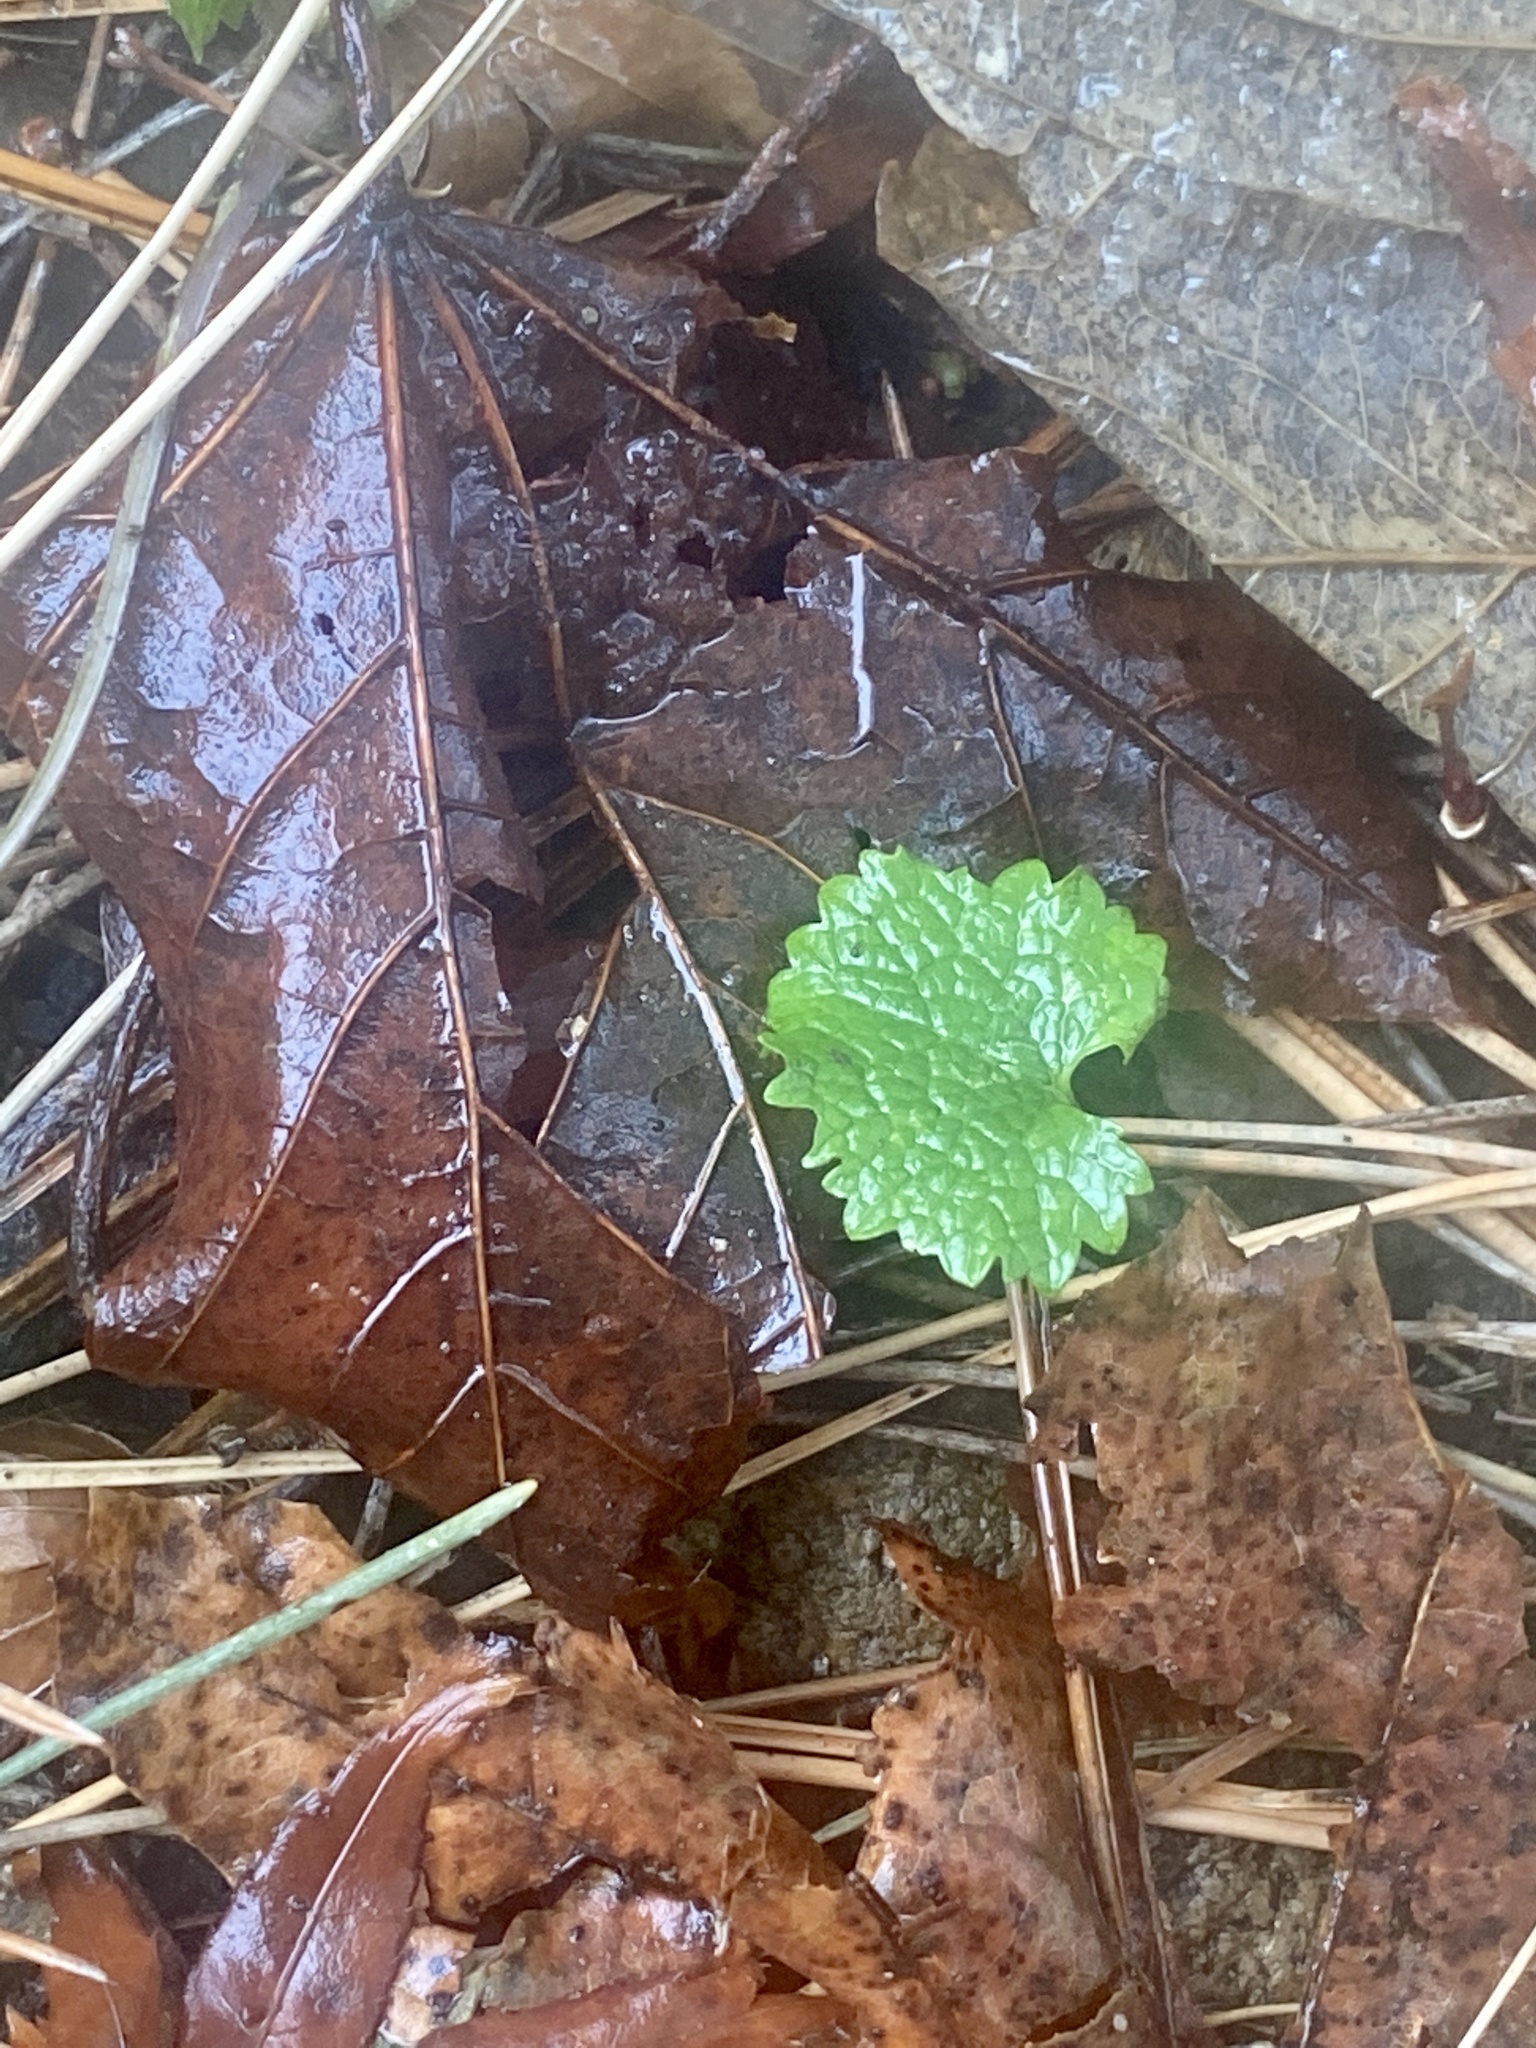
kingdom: Plantae
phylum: Tracheophyta
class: Magnoliopsida
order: Brassicales
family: Brassicaceae
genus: Alliaria
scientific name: Alliaria petiolata
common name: Garlic mustard
